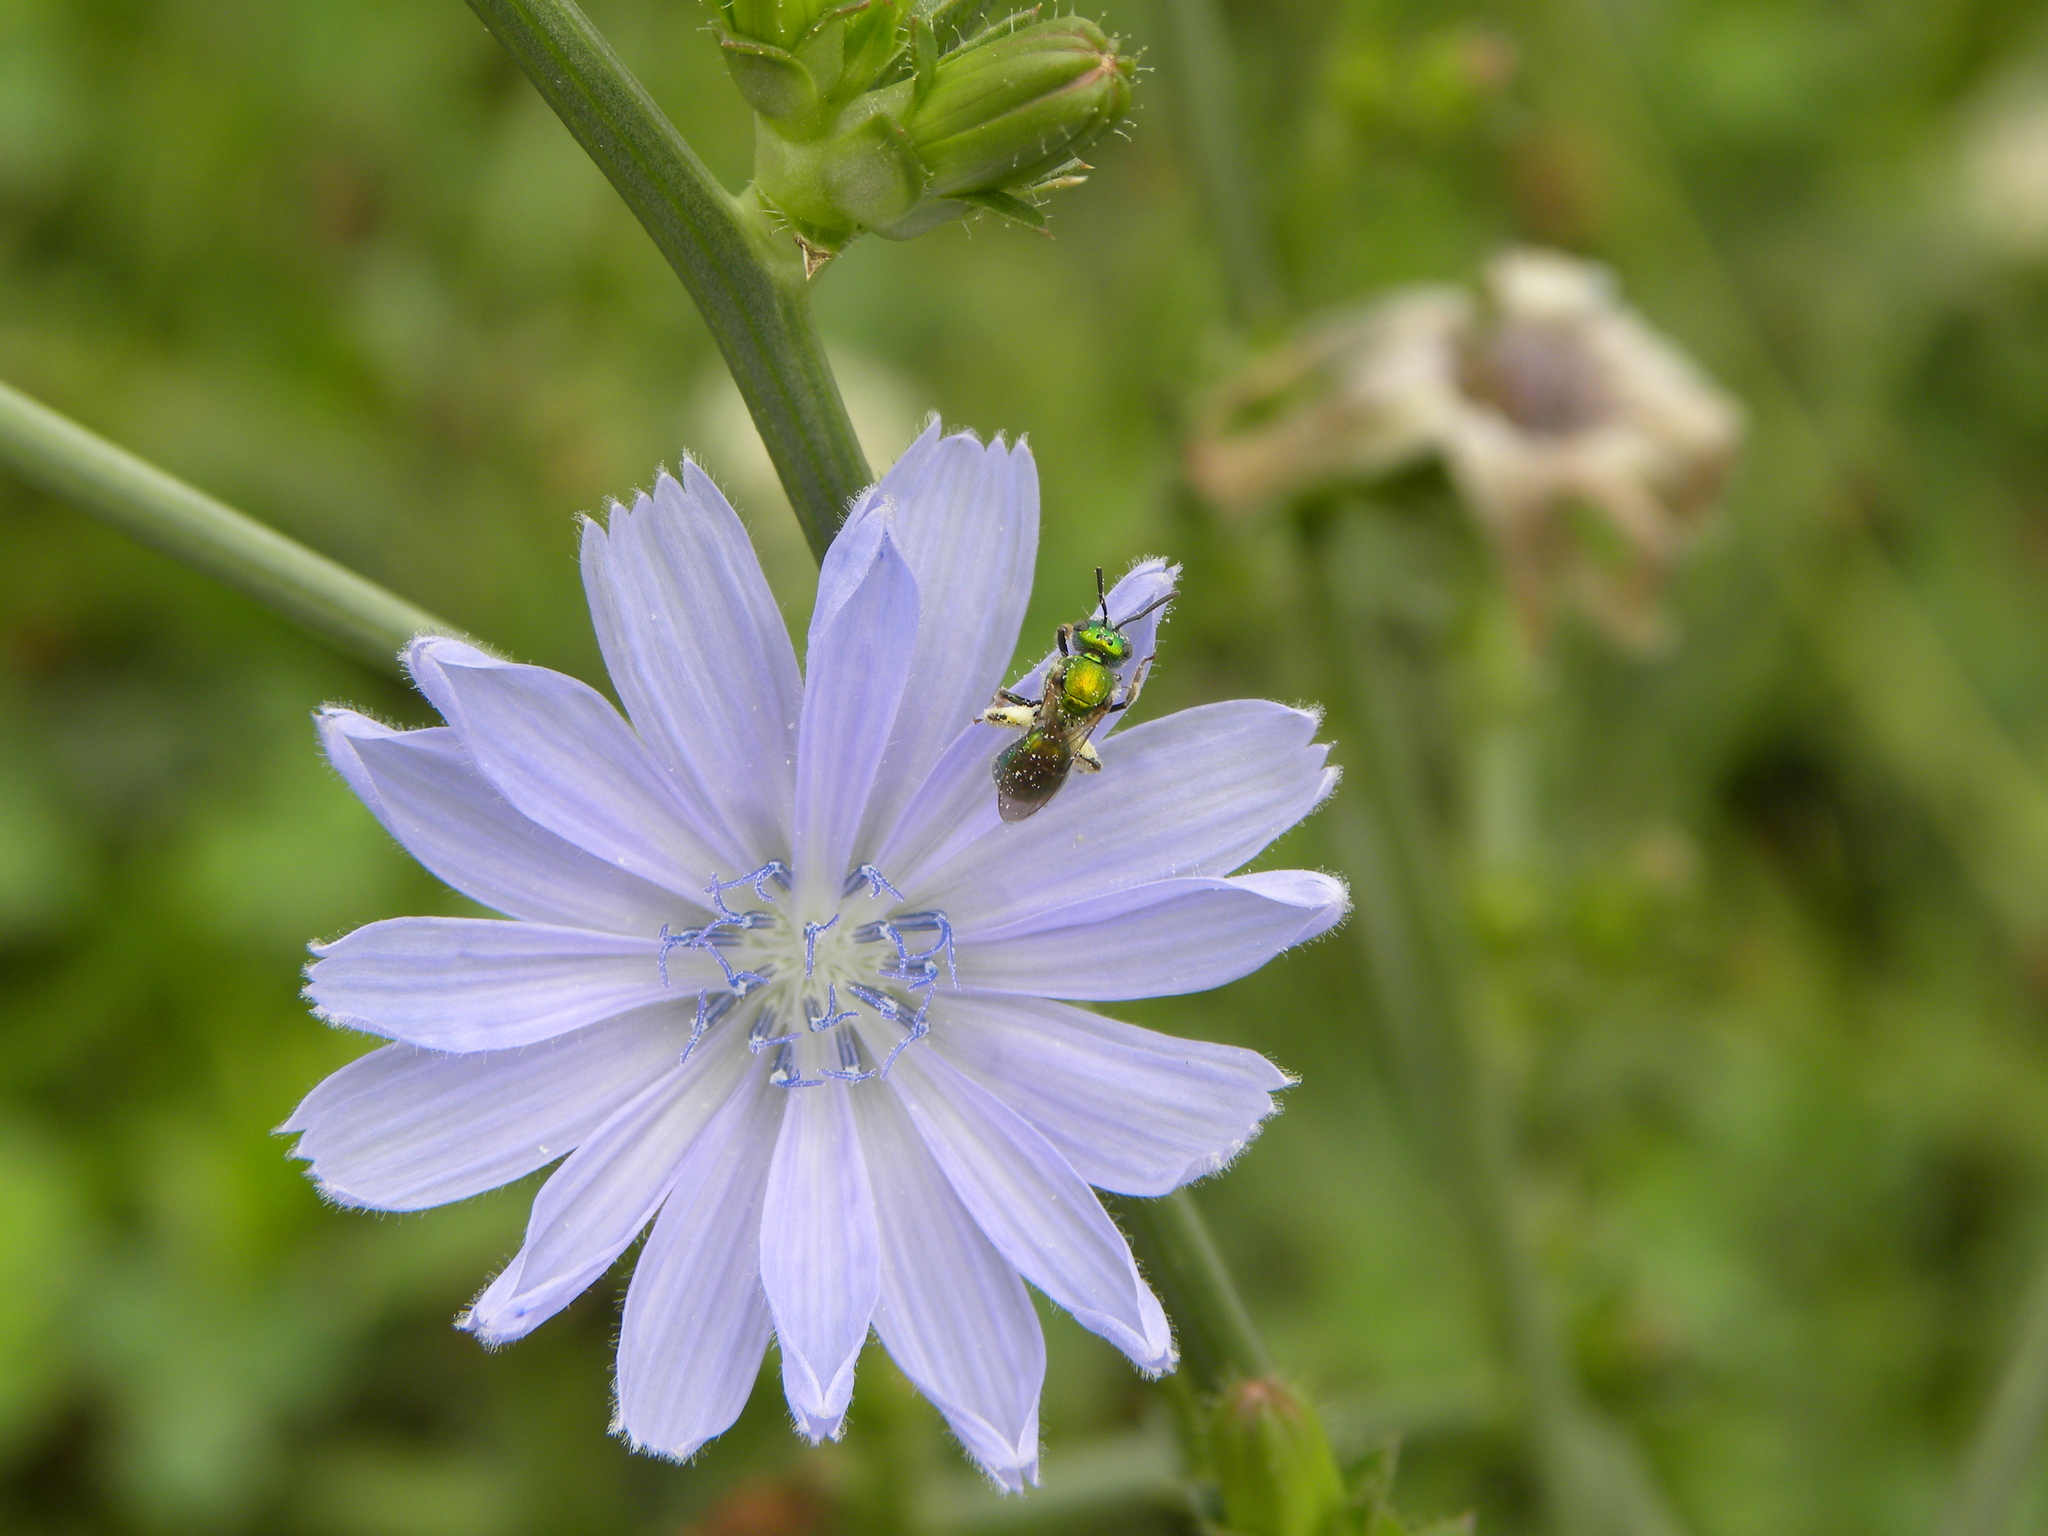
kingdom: Plantae
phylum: Tracheophyta
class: Magnoliopsida
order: Asterales
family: Asteraceae
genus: Cichorium
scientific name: Cichorium intybus
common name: Chicory
